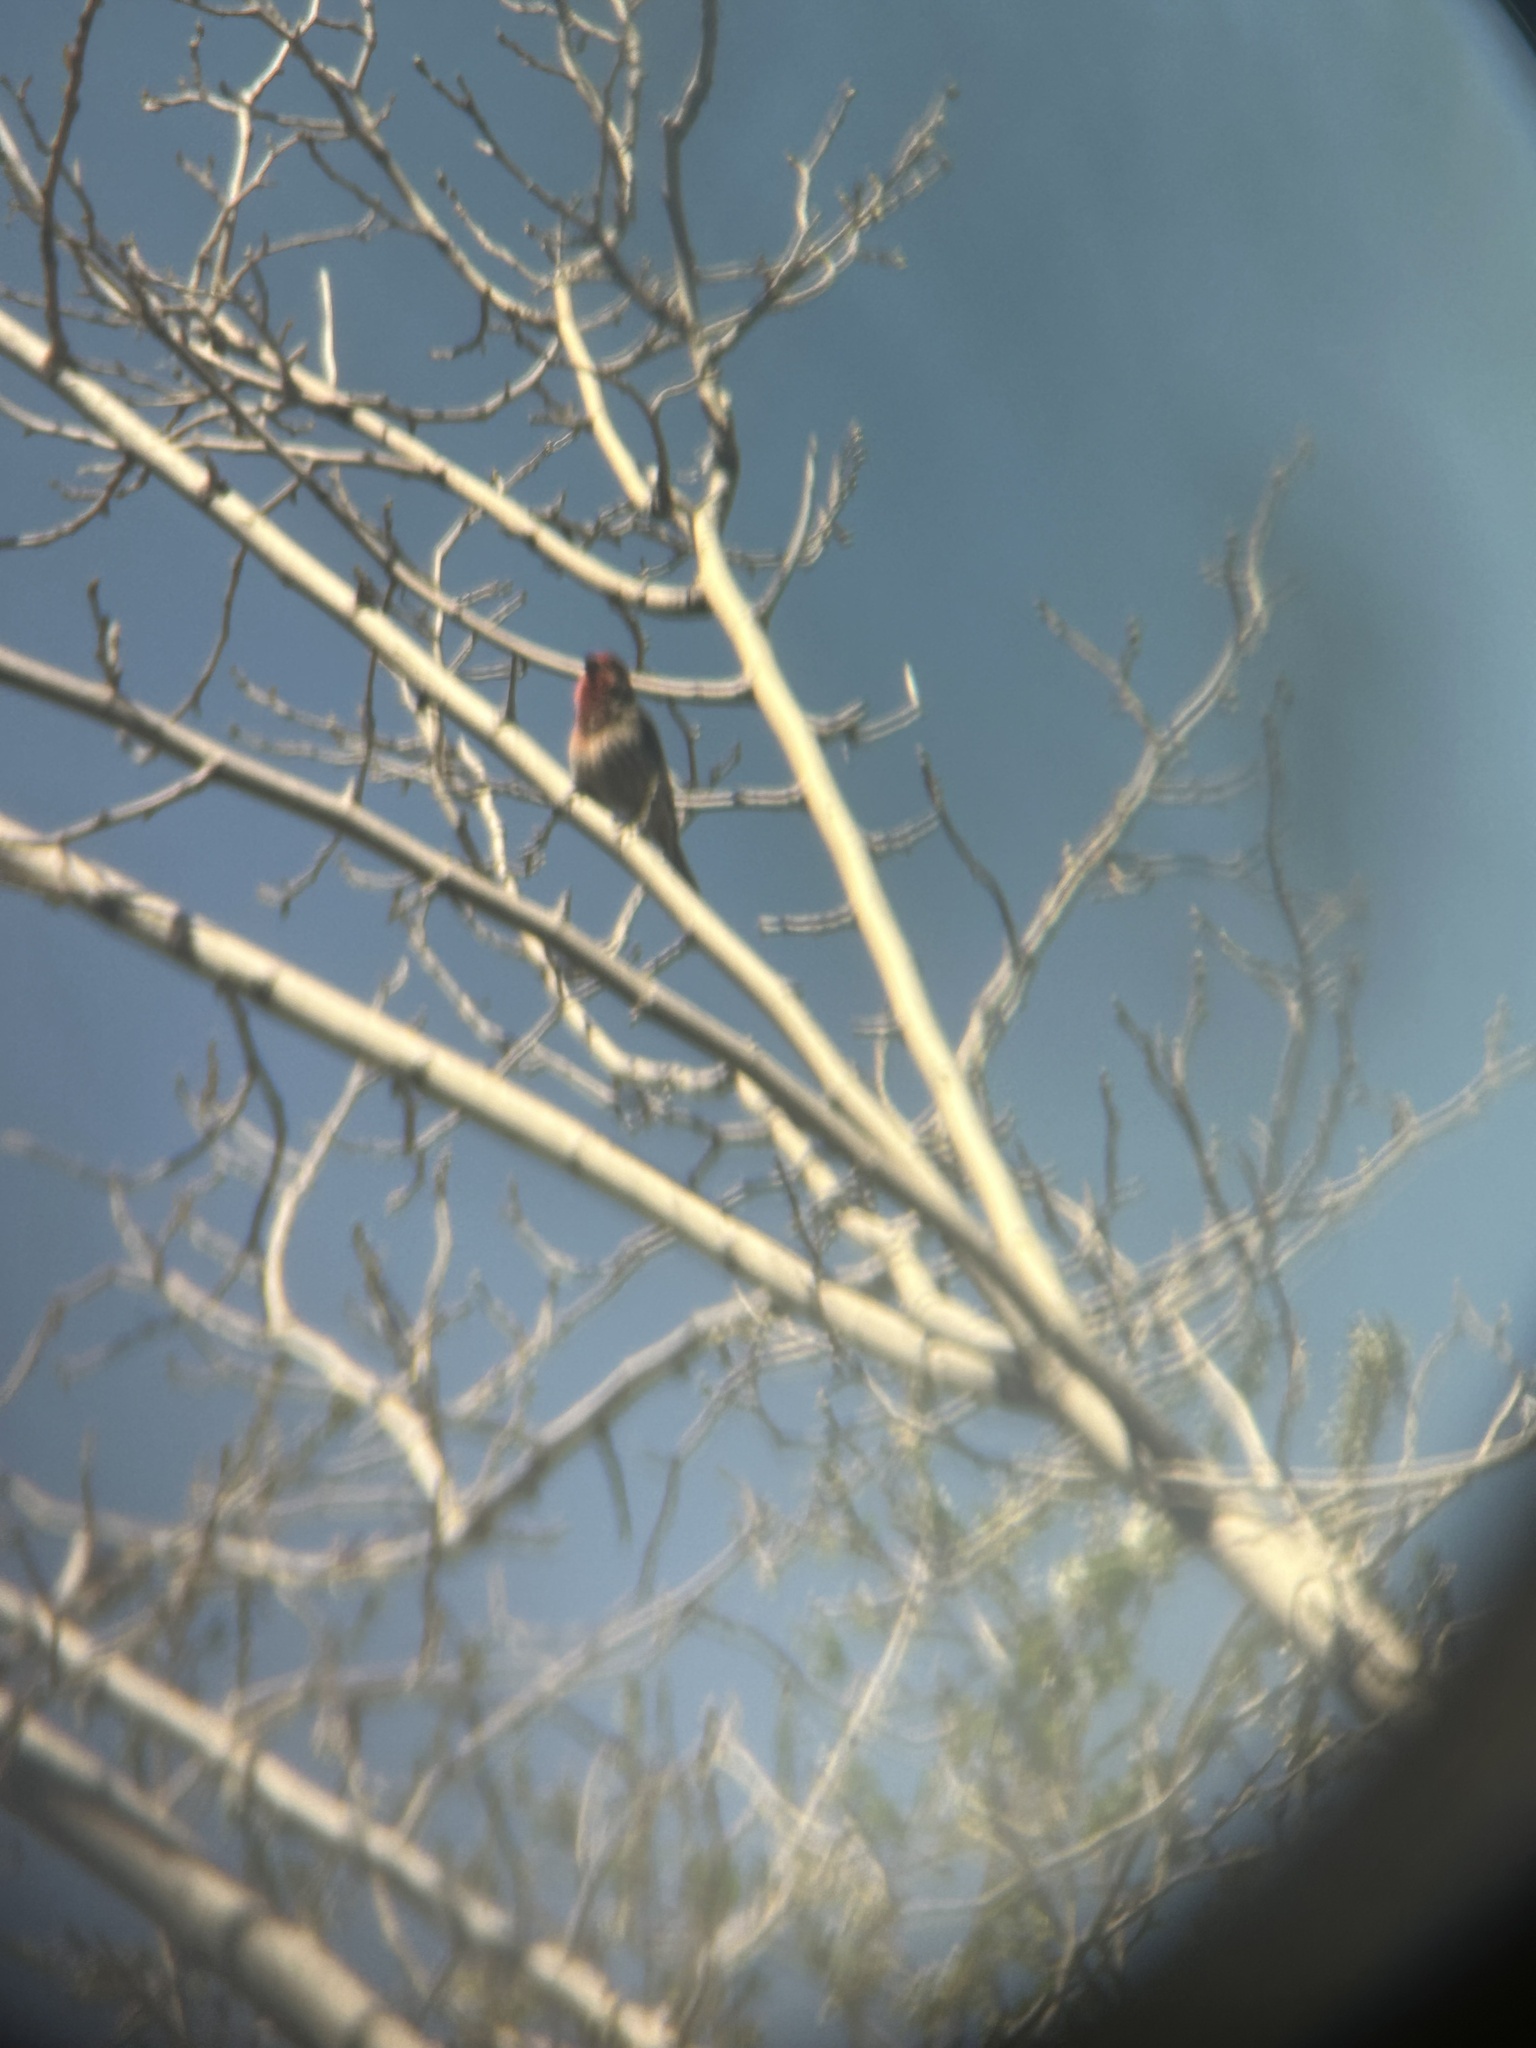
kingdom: Animalia
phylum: Chordata
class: Aves
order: Passeriformes
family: Fringillidae
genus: Haemorhous
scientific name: Haemorhous mexicanus
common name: House finch
